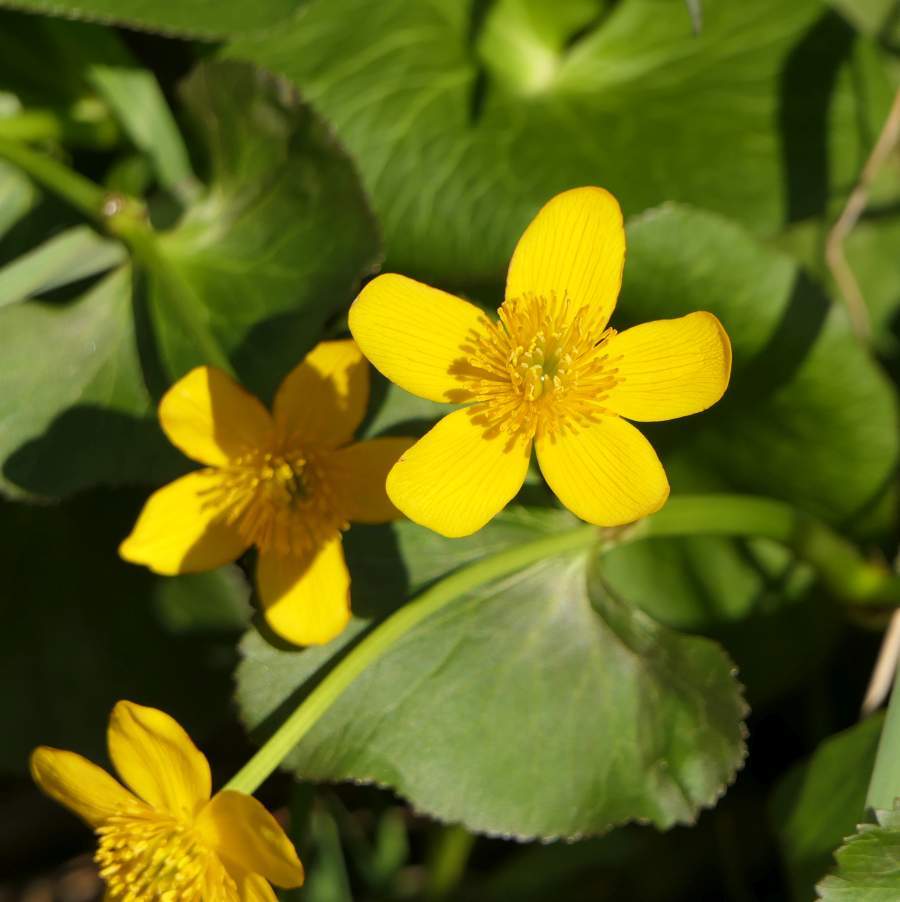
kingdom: Plantae
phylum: Tracheophyta
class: Magnoliopsida
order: Ranunculales
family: Ranunculaceae
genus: Caltha
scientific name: Caltha palustris
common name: Marsh marigold
